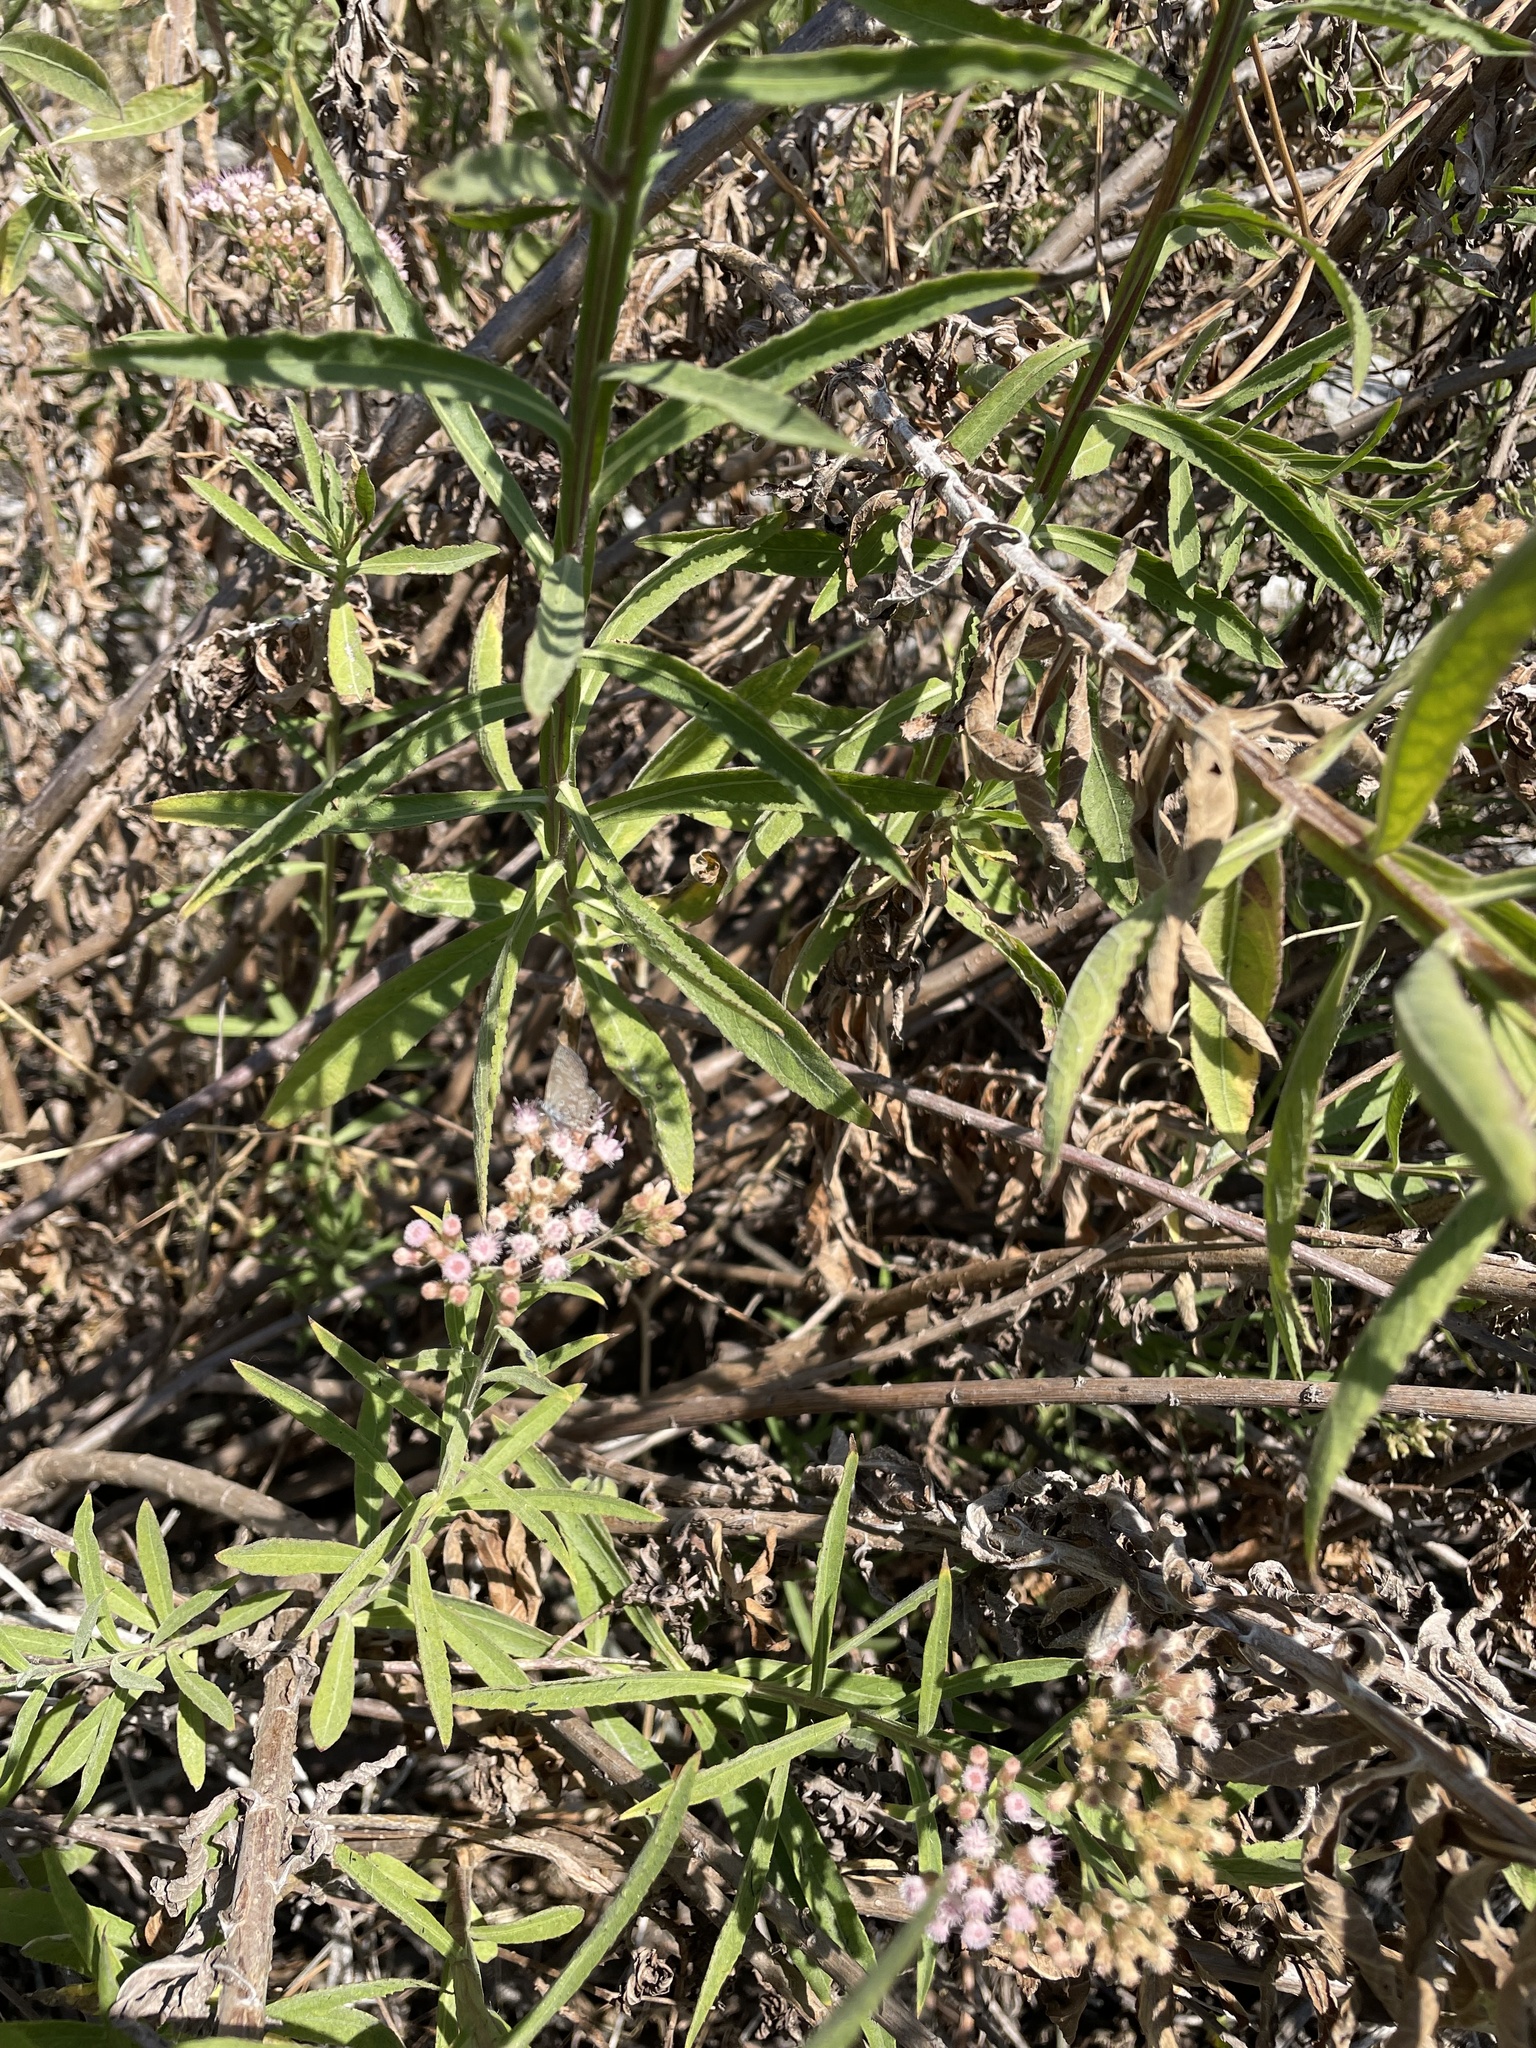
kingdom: Plantae
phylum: Tracheophyta
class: Magnoliopsida
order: Asterales
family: Asteraceae
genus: Pluchea
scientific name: Pluchea salicifolia
